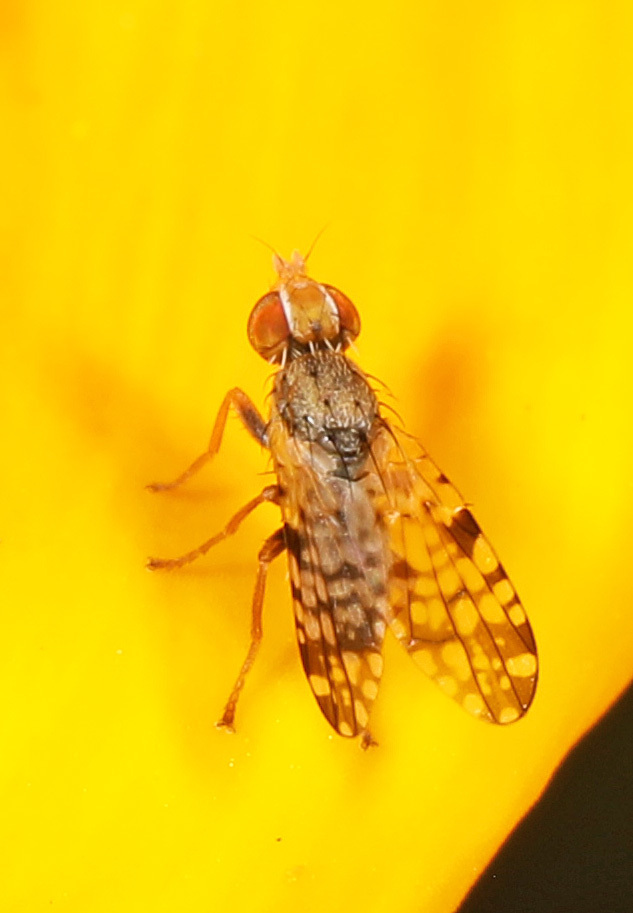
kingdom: Animalia
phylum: Arthropoda
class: Insecta
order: Diptera
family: Tephritidae
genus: Dioxyna
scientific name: Dioxyna picciola
